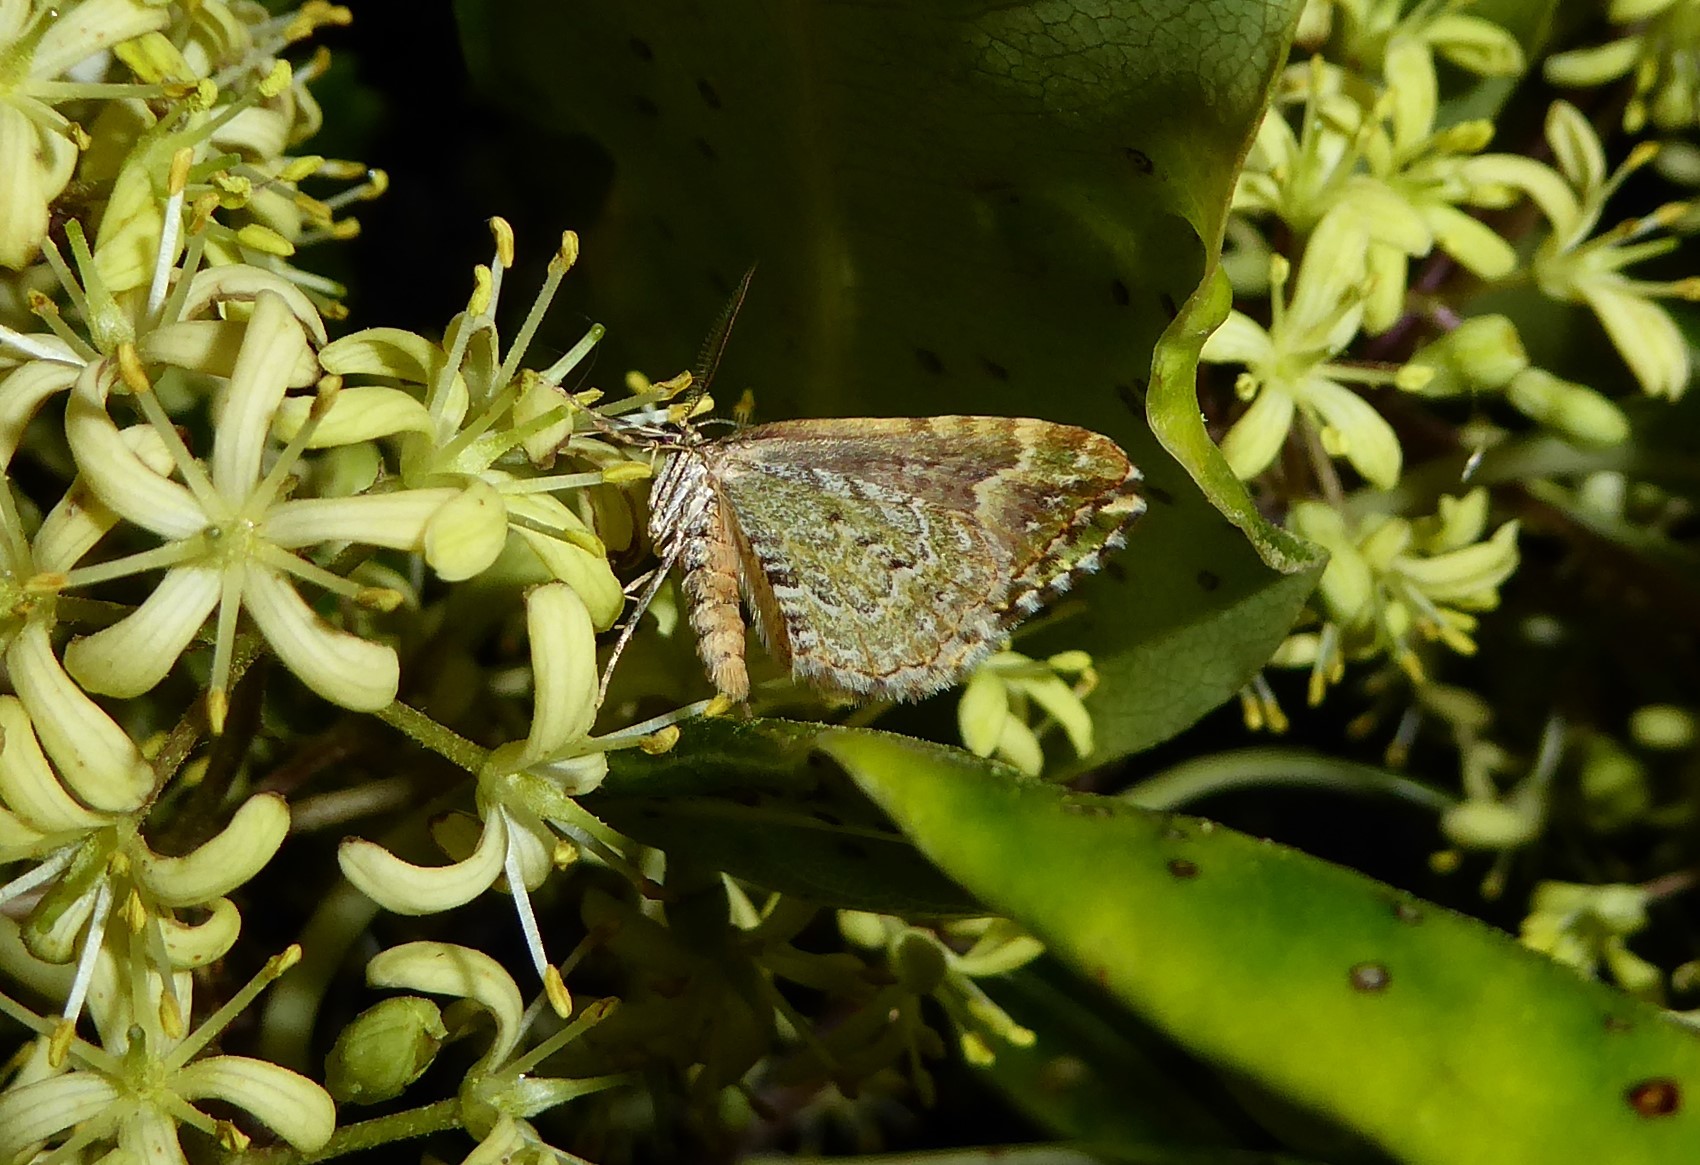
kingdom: Animalia
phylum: Arthropoda
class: Insecta
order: Lepidoptera
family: Geometridae
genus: Asaphodes
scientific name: Asaphodes beata
